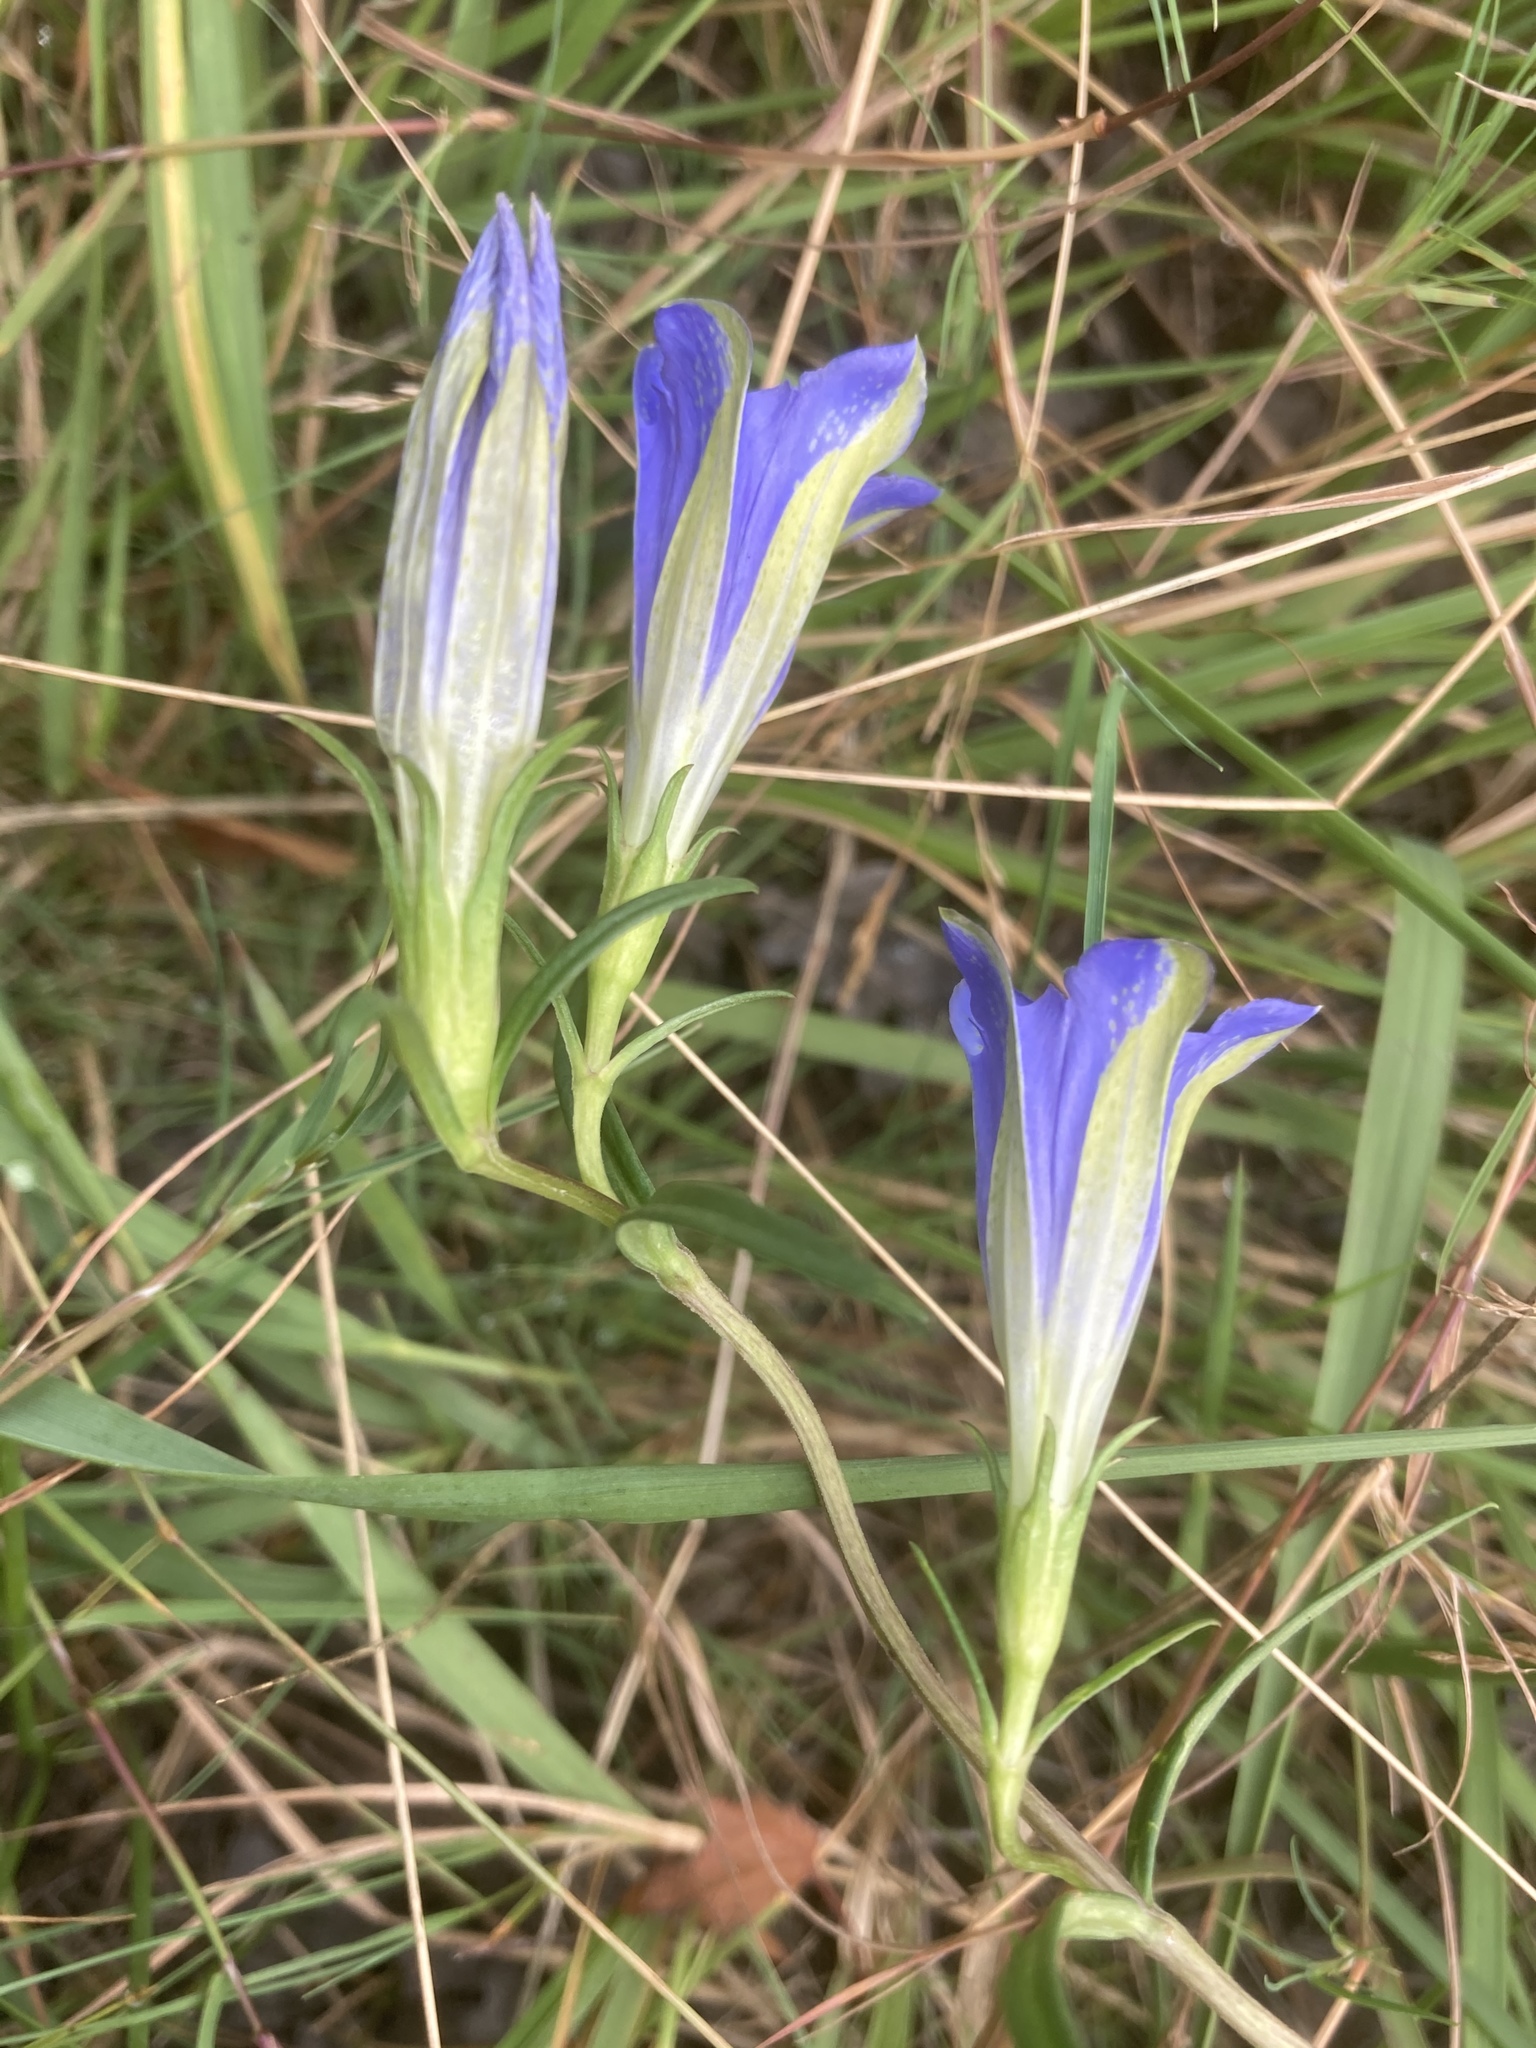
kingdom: Plantae
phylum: Tracheophyta
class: Magnoliopsida
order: Gentianales
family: Gentianaceae
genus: Gentiana
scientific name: Gentiana pneumonanthe
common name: Marsh gentian
